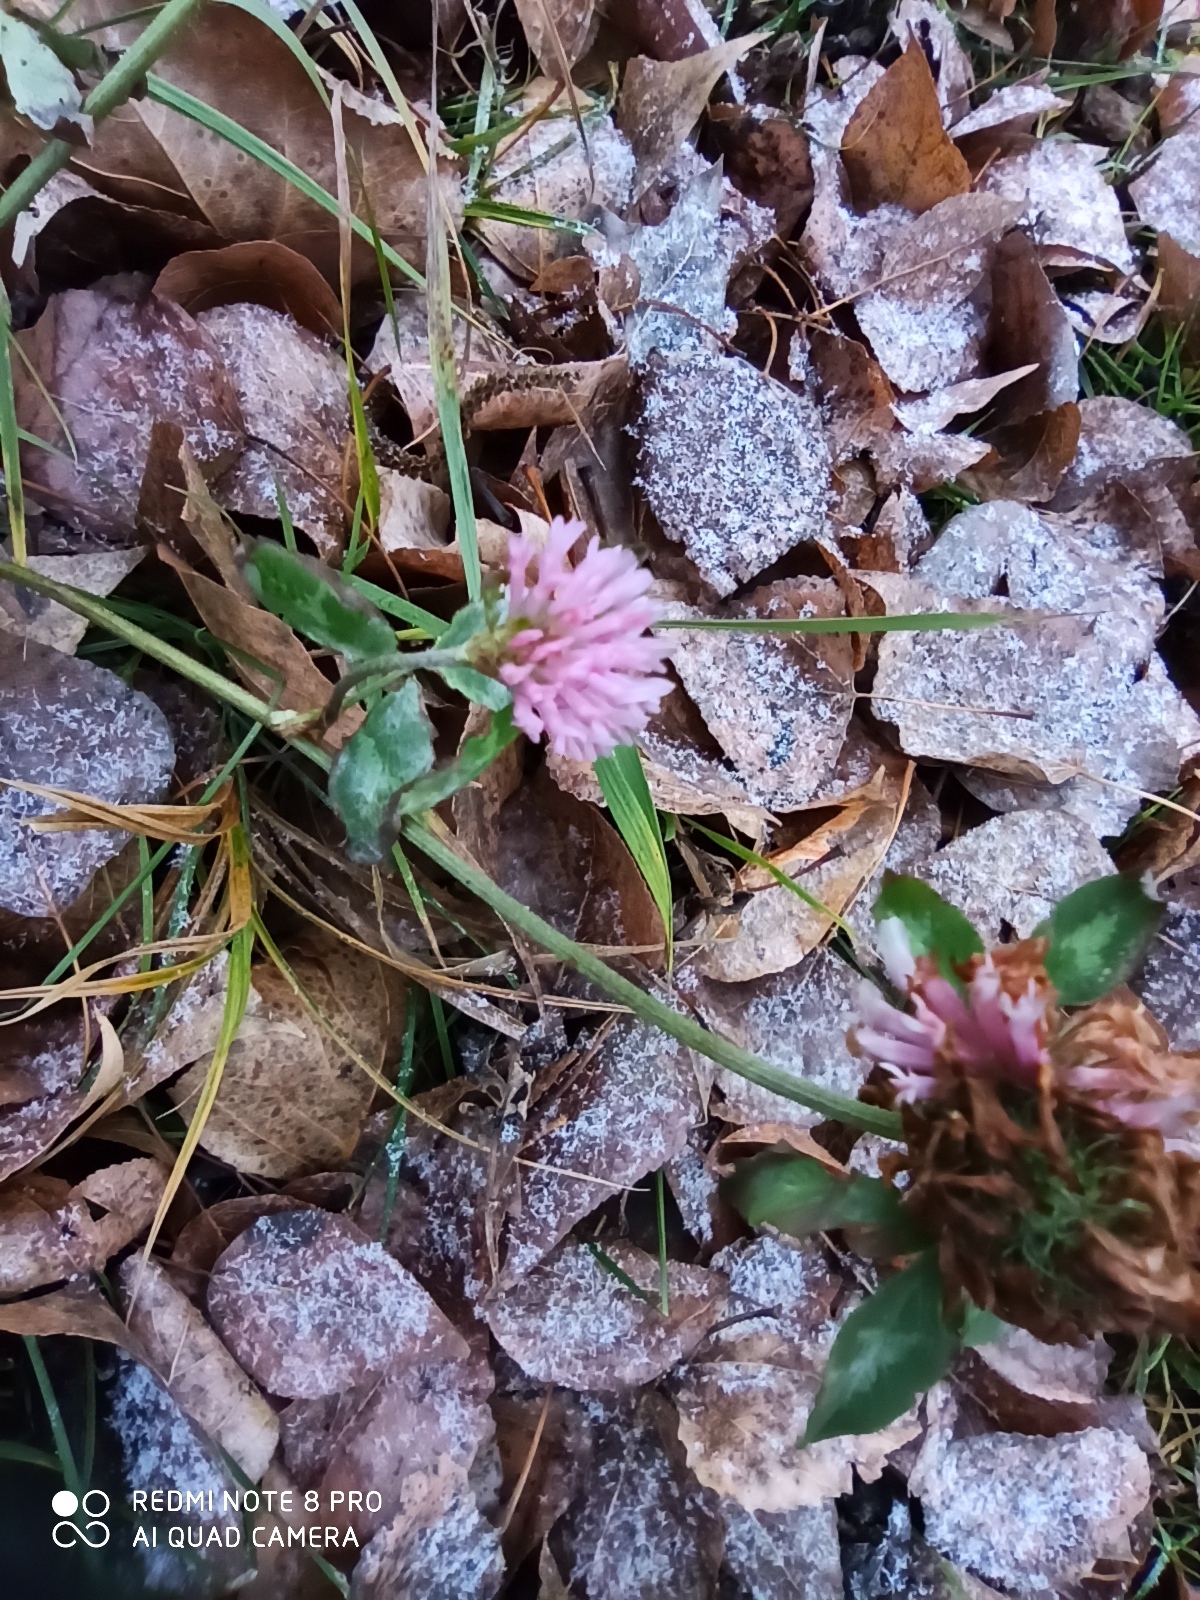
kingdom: Plantae
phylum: Tracheophyta
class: Magnoliopsida
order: Fabales
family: Fabaceae
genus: Trifolium
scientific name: Trifolium pratense
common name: Red clover
